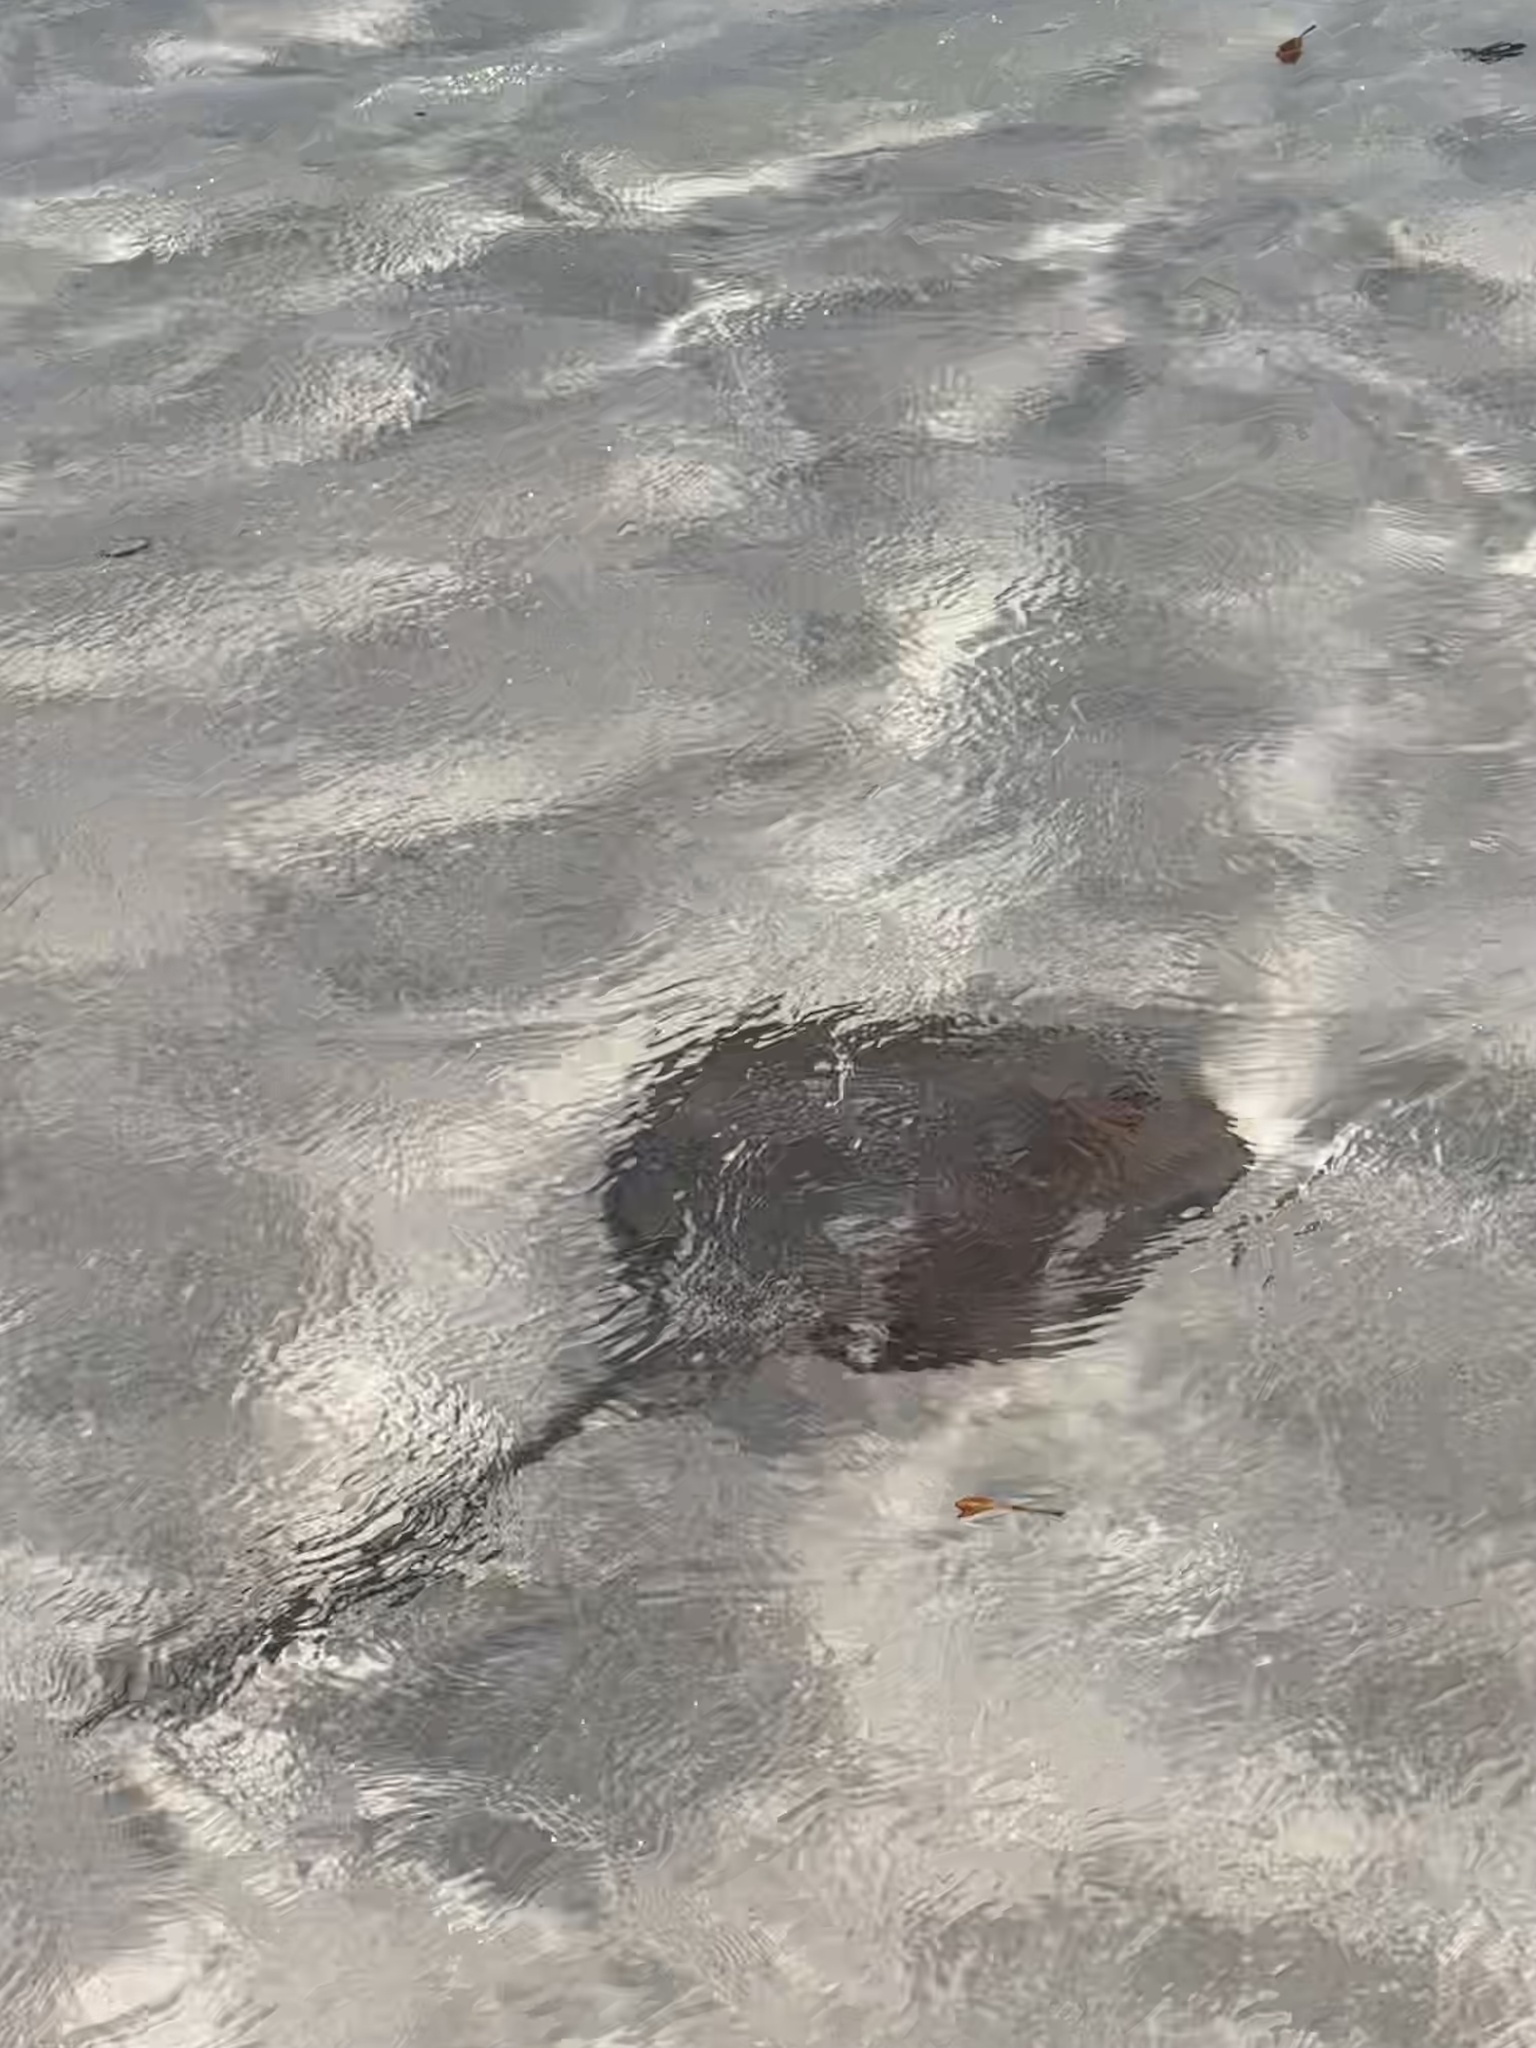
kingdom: Animalia
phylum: Chordata
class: Elasmobranchii
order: Myliobatiformes
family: Dasyatidae
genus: Pastinachus
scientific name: Pastinachus ater
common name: Banana-tail ray
